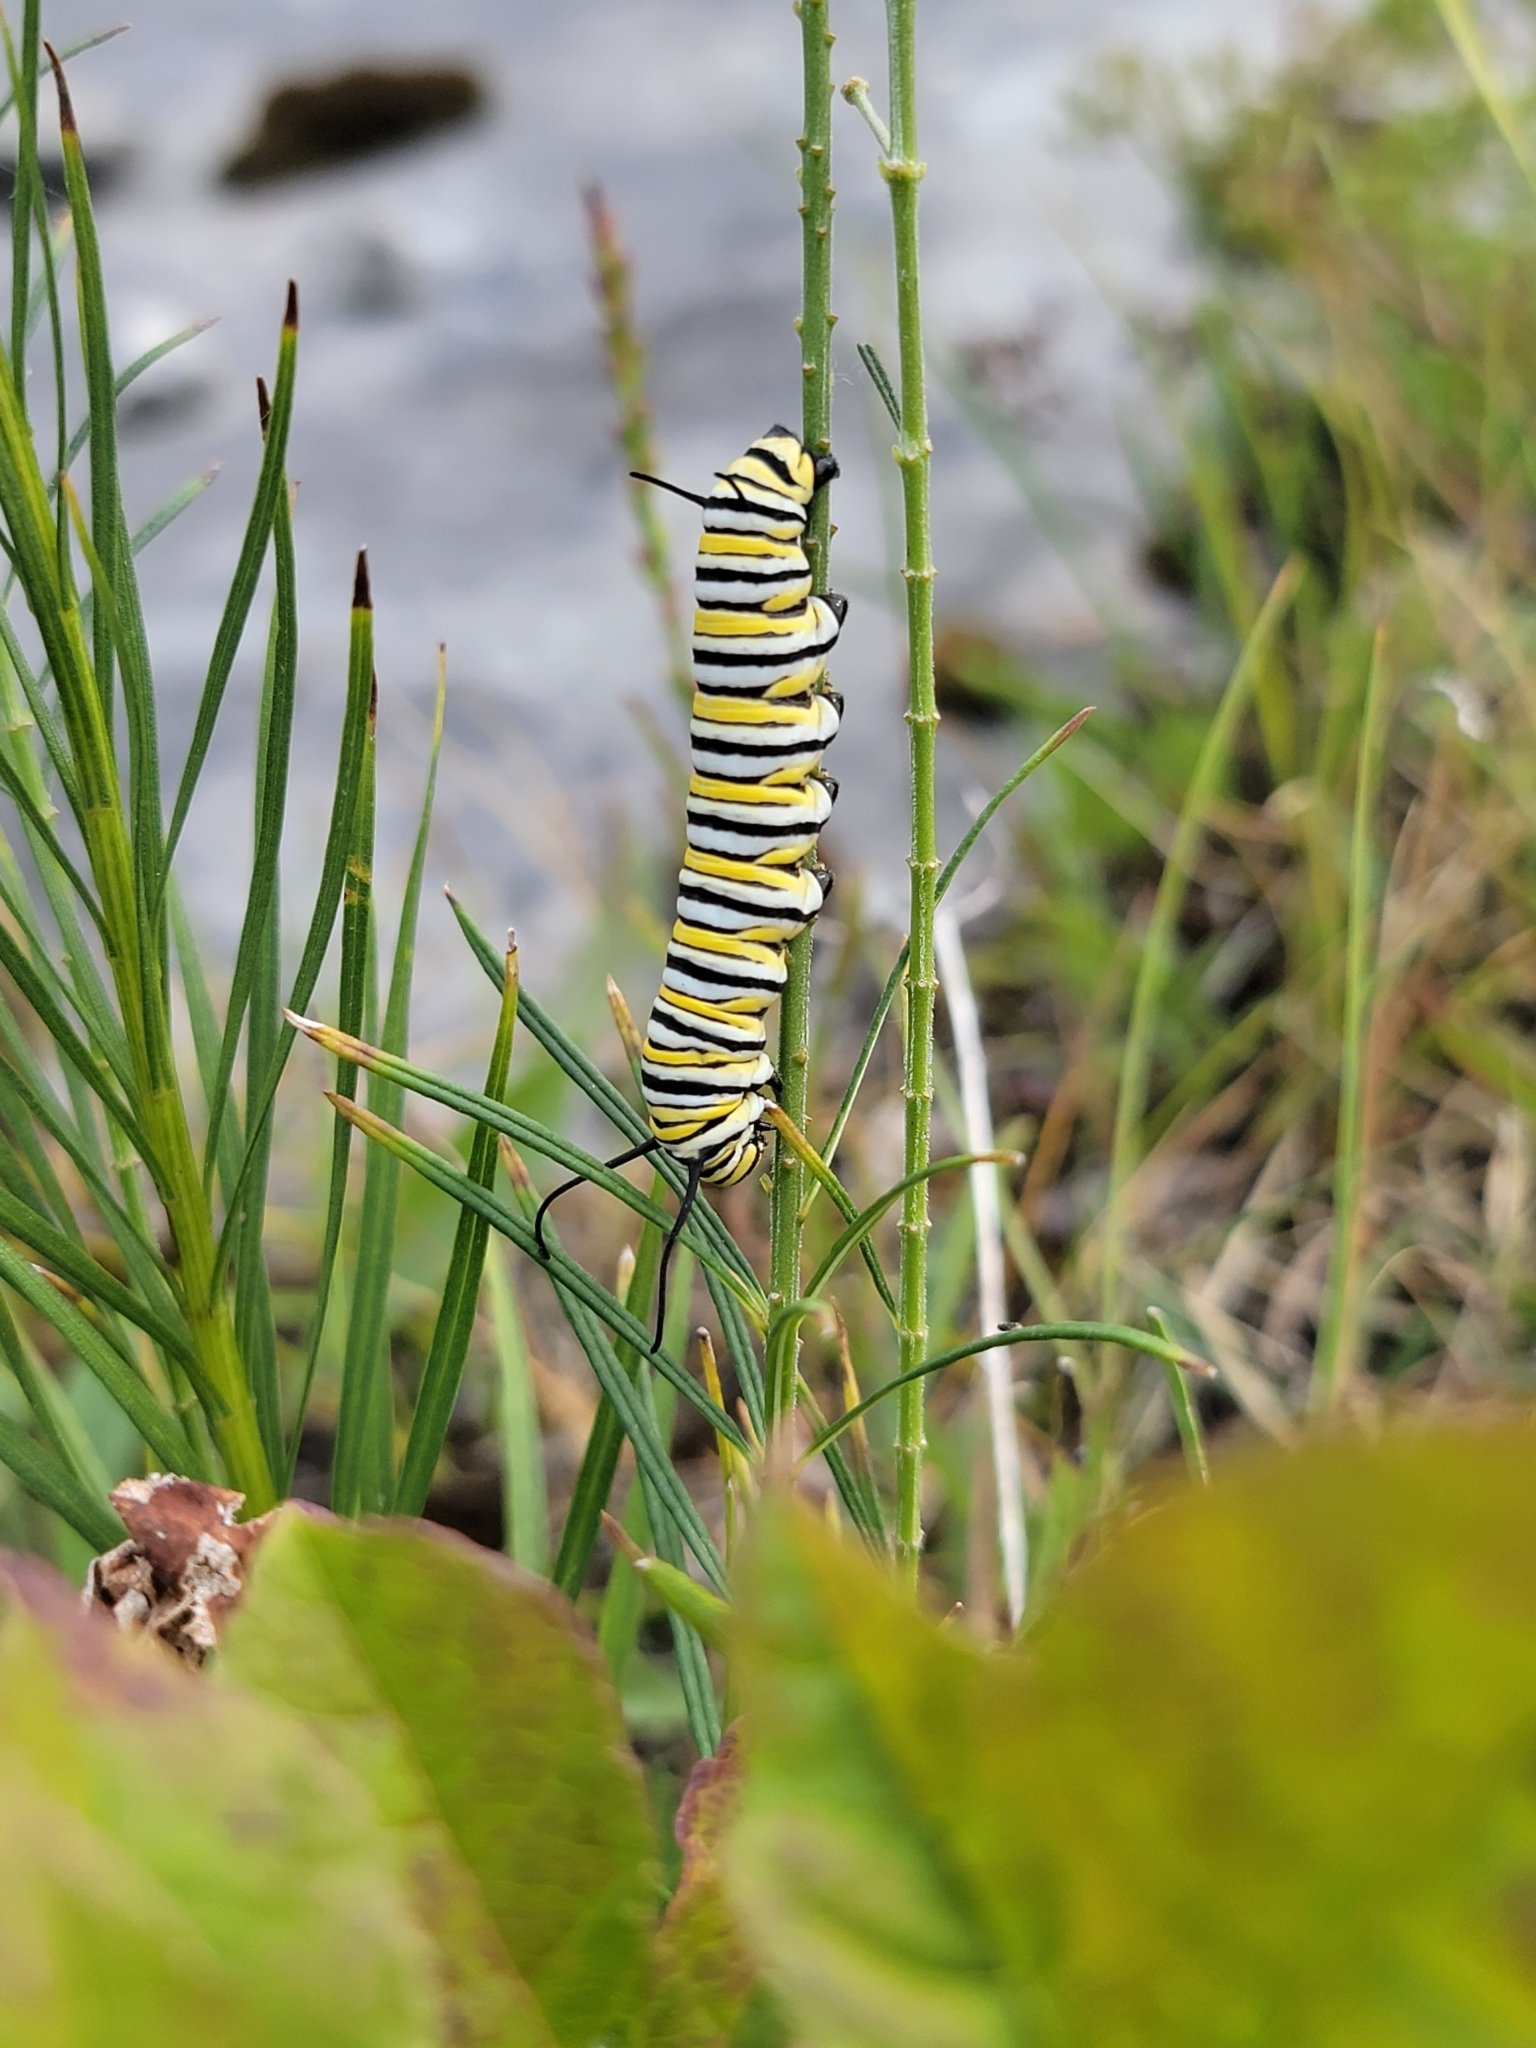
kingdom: Animalia
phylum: Arthropoda
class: Insecta
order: Lepidoptera
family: Nymphalidae
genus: Danaus
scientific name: Danaus plexippus
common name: Monarch
